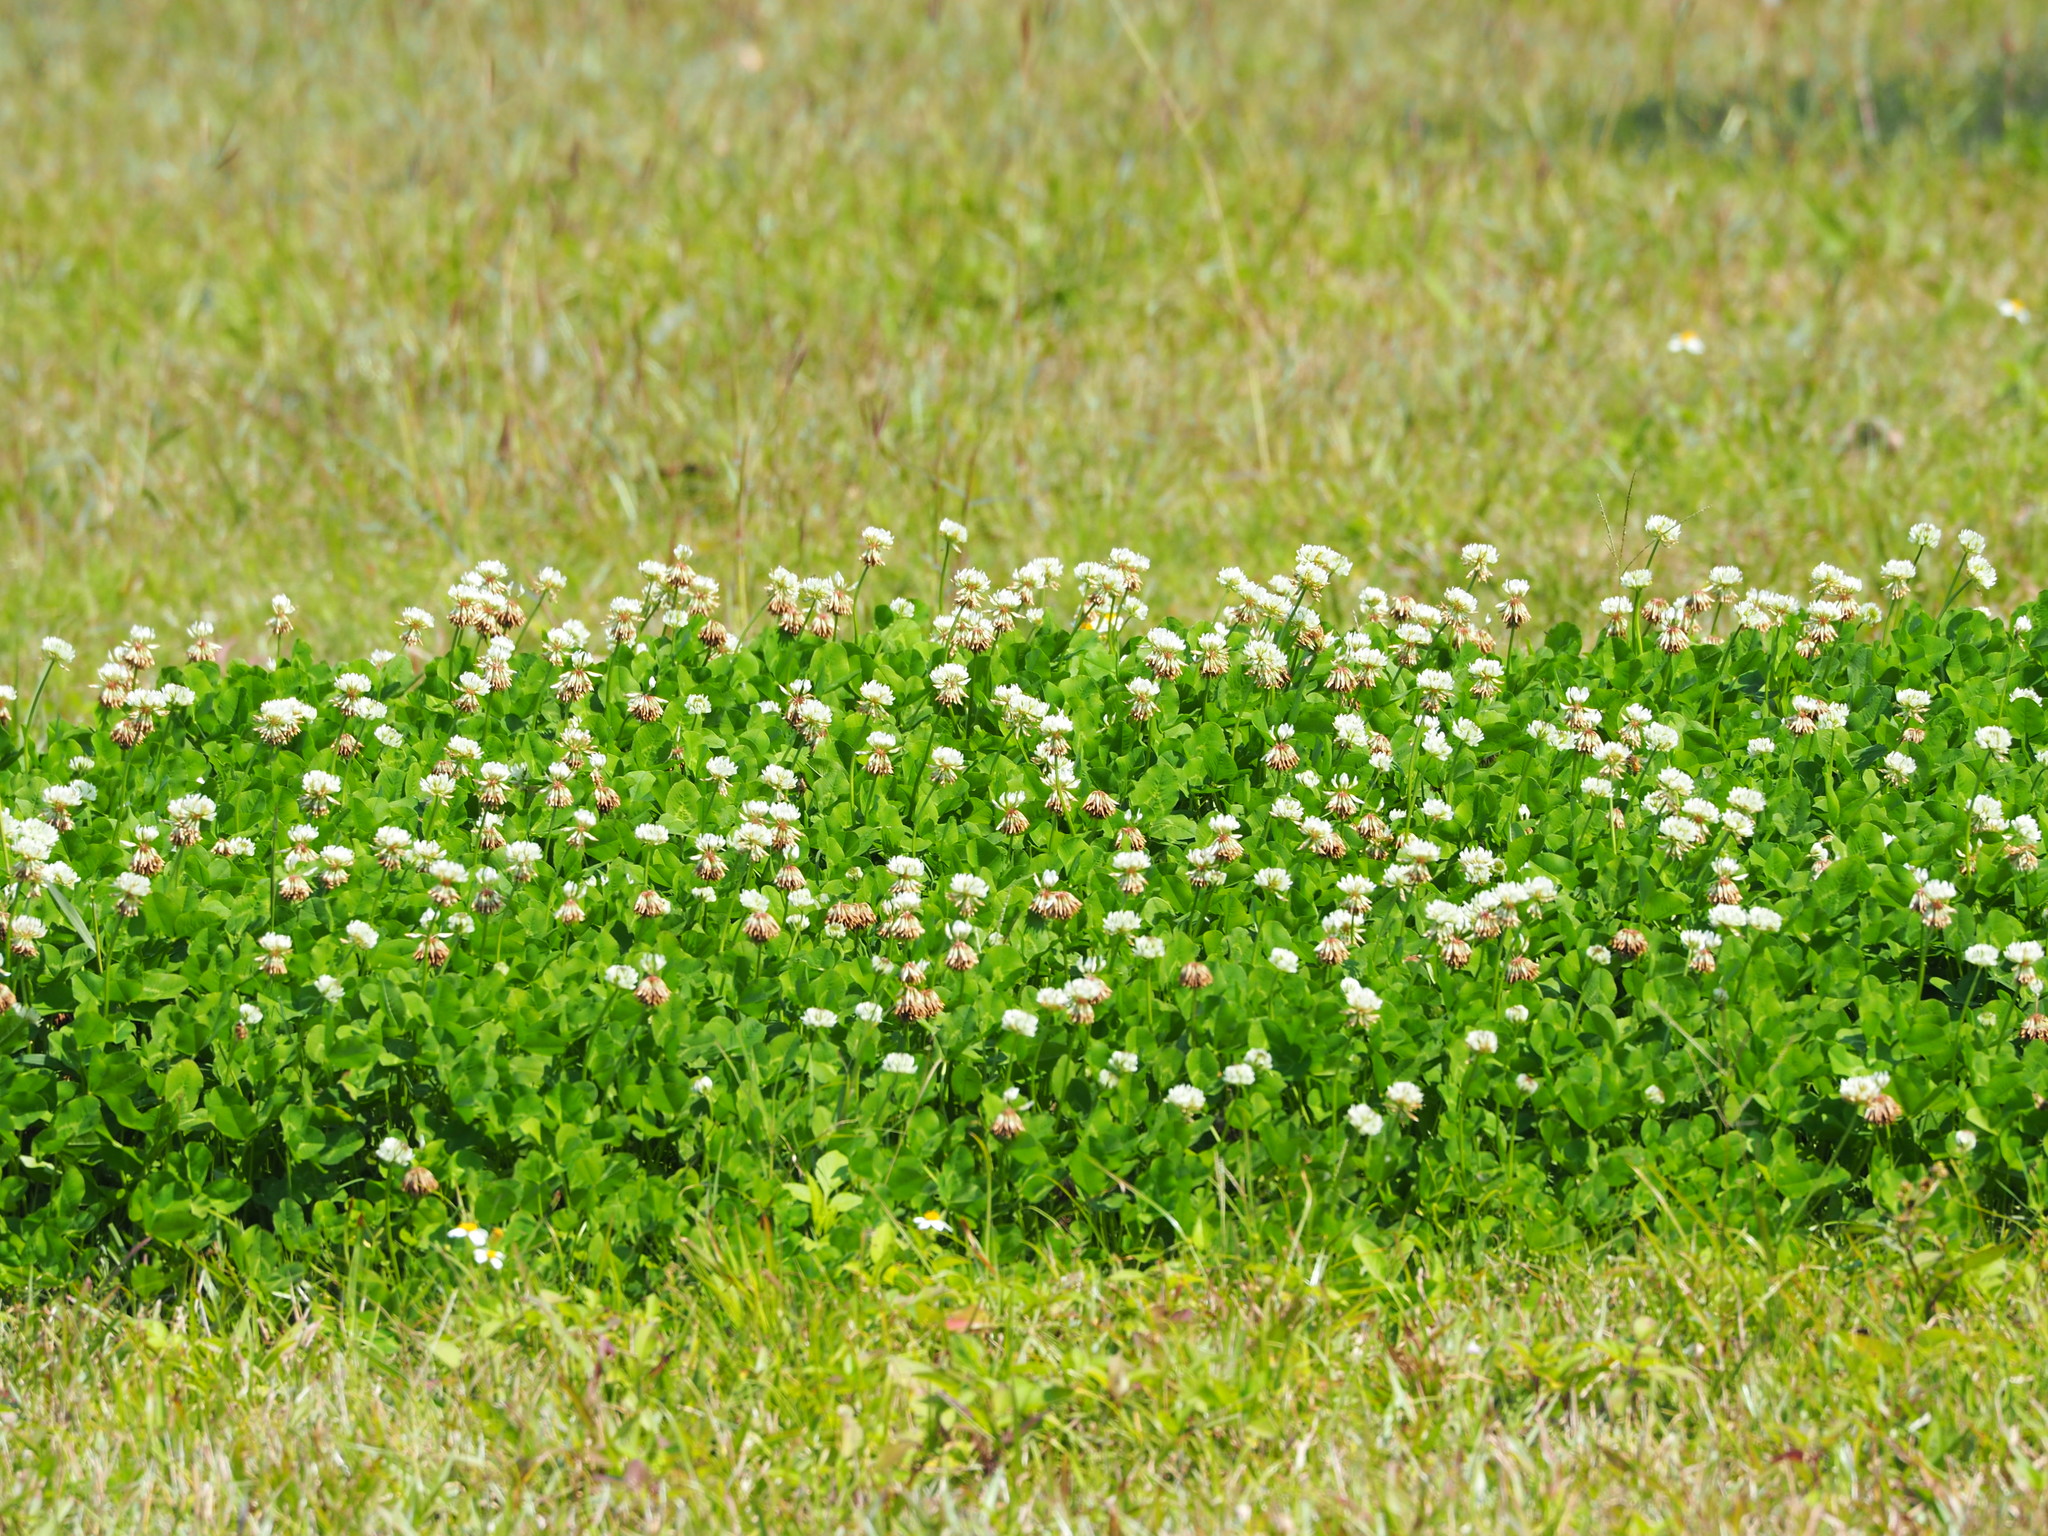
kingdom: Plantae
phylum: Tracheophyta
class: Magnoliopsida
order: Fabales
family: Fabaceae
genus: Trifolium
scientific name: Trifolium repens
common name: White clover
